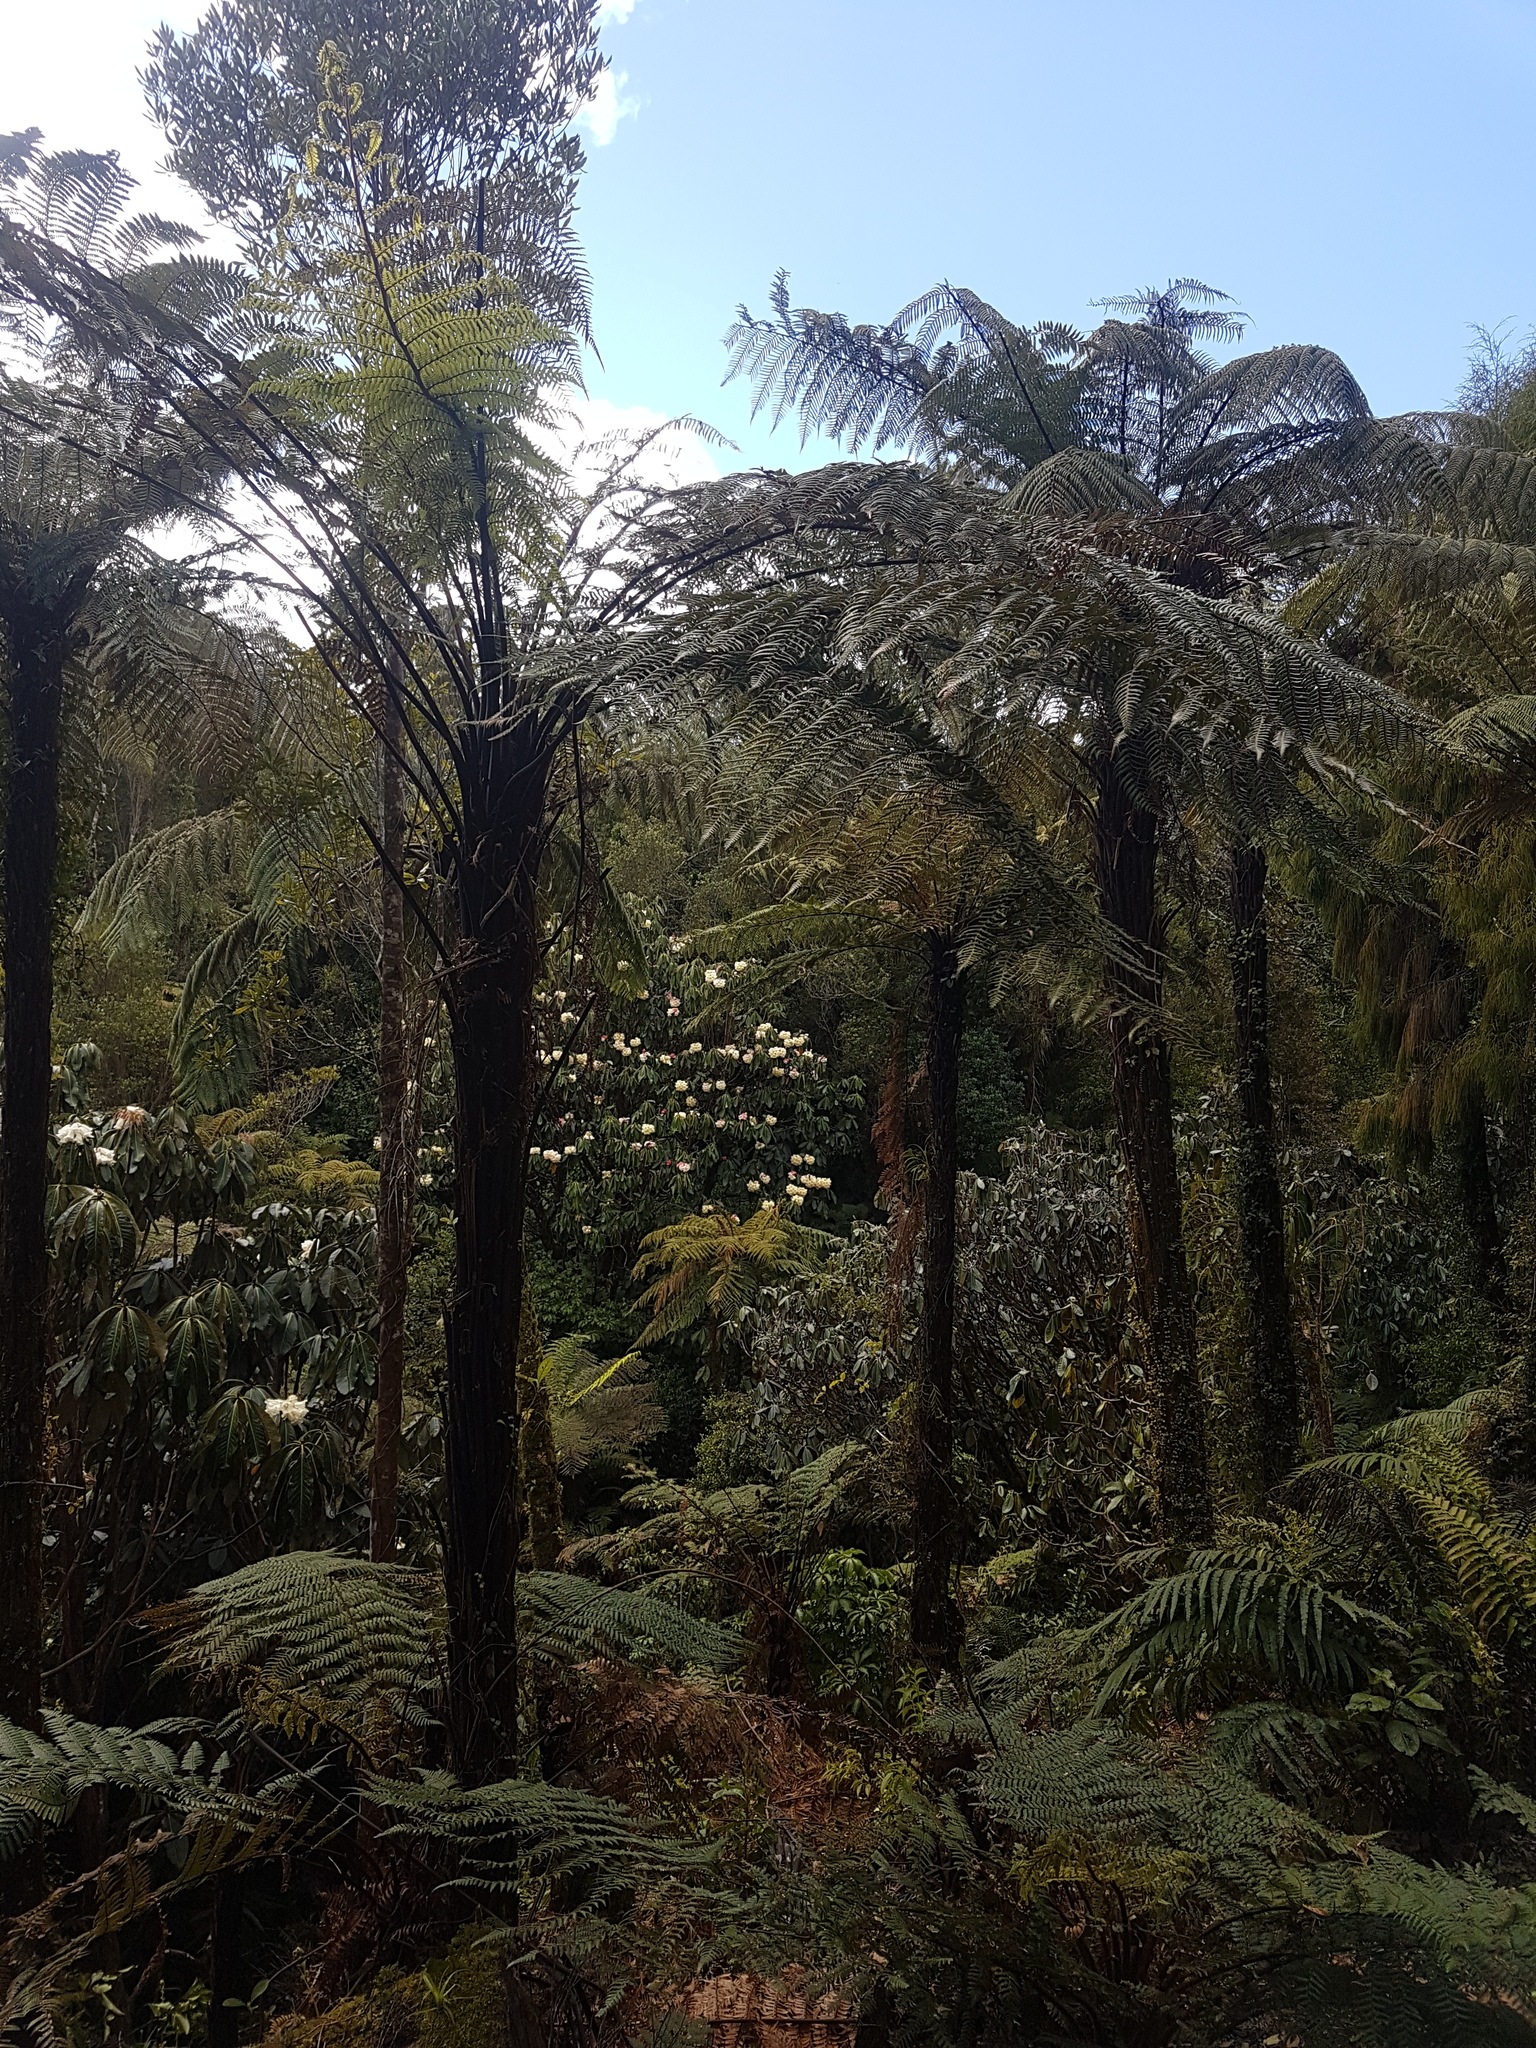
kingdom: Plantae
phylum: Tracheophyta
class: Polypodiopsida
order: Cyatheales
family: Dicksoniaceae
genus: Dicksonia
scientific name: Dicksonia squarrosa
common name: Hard treefern
